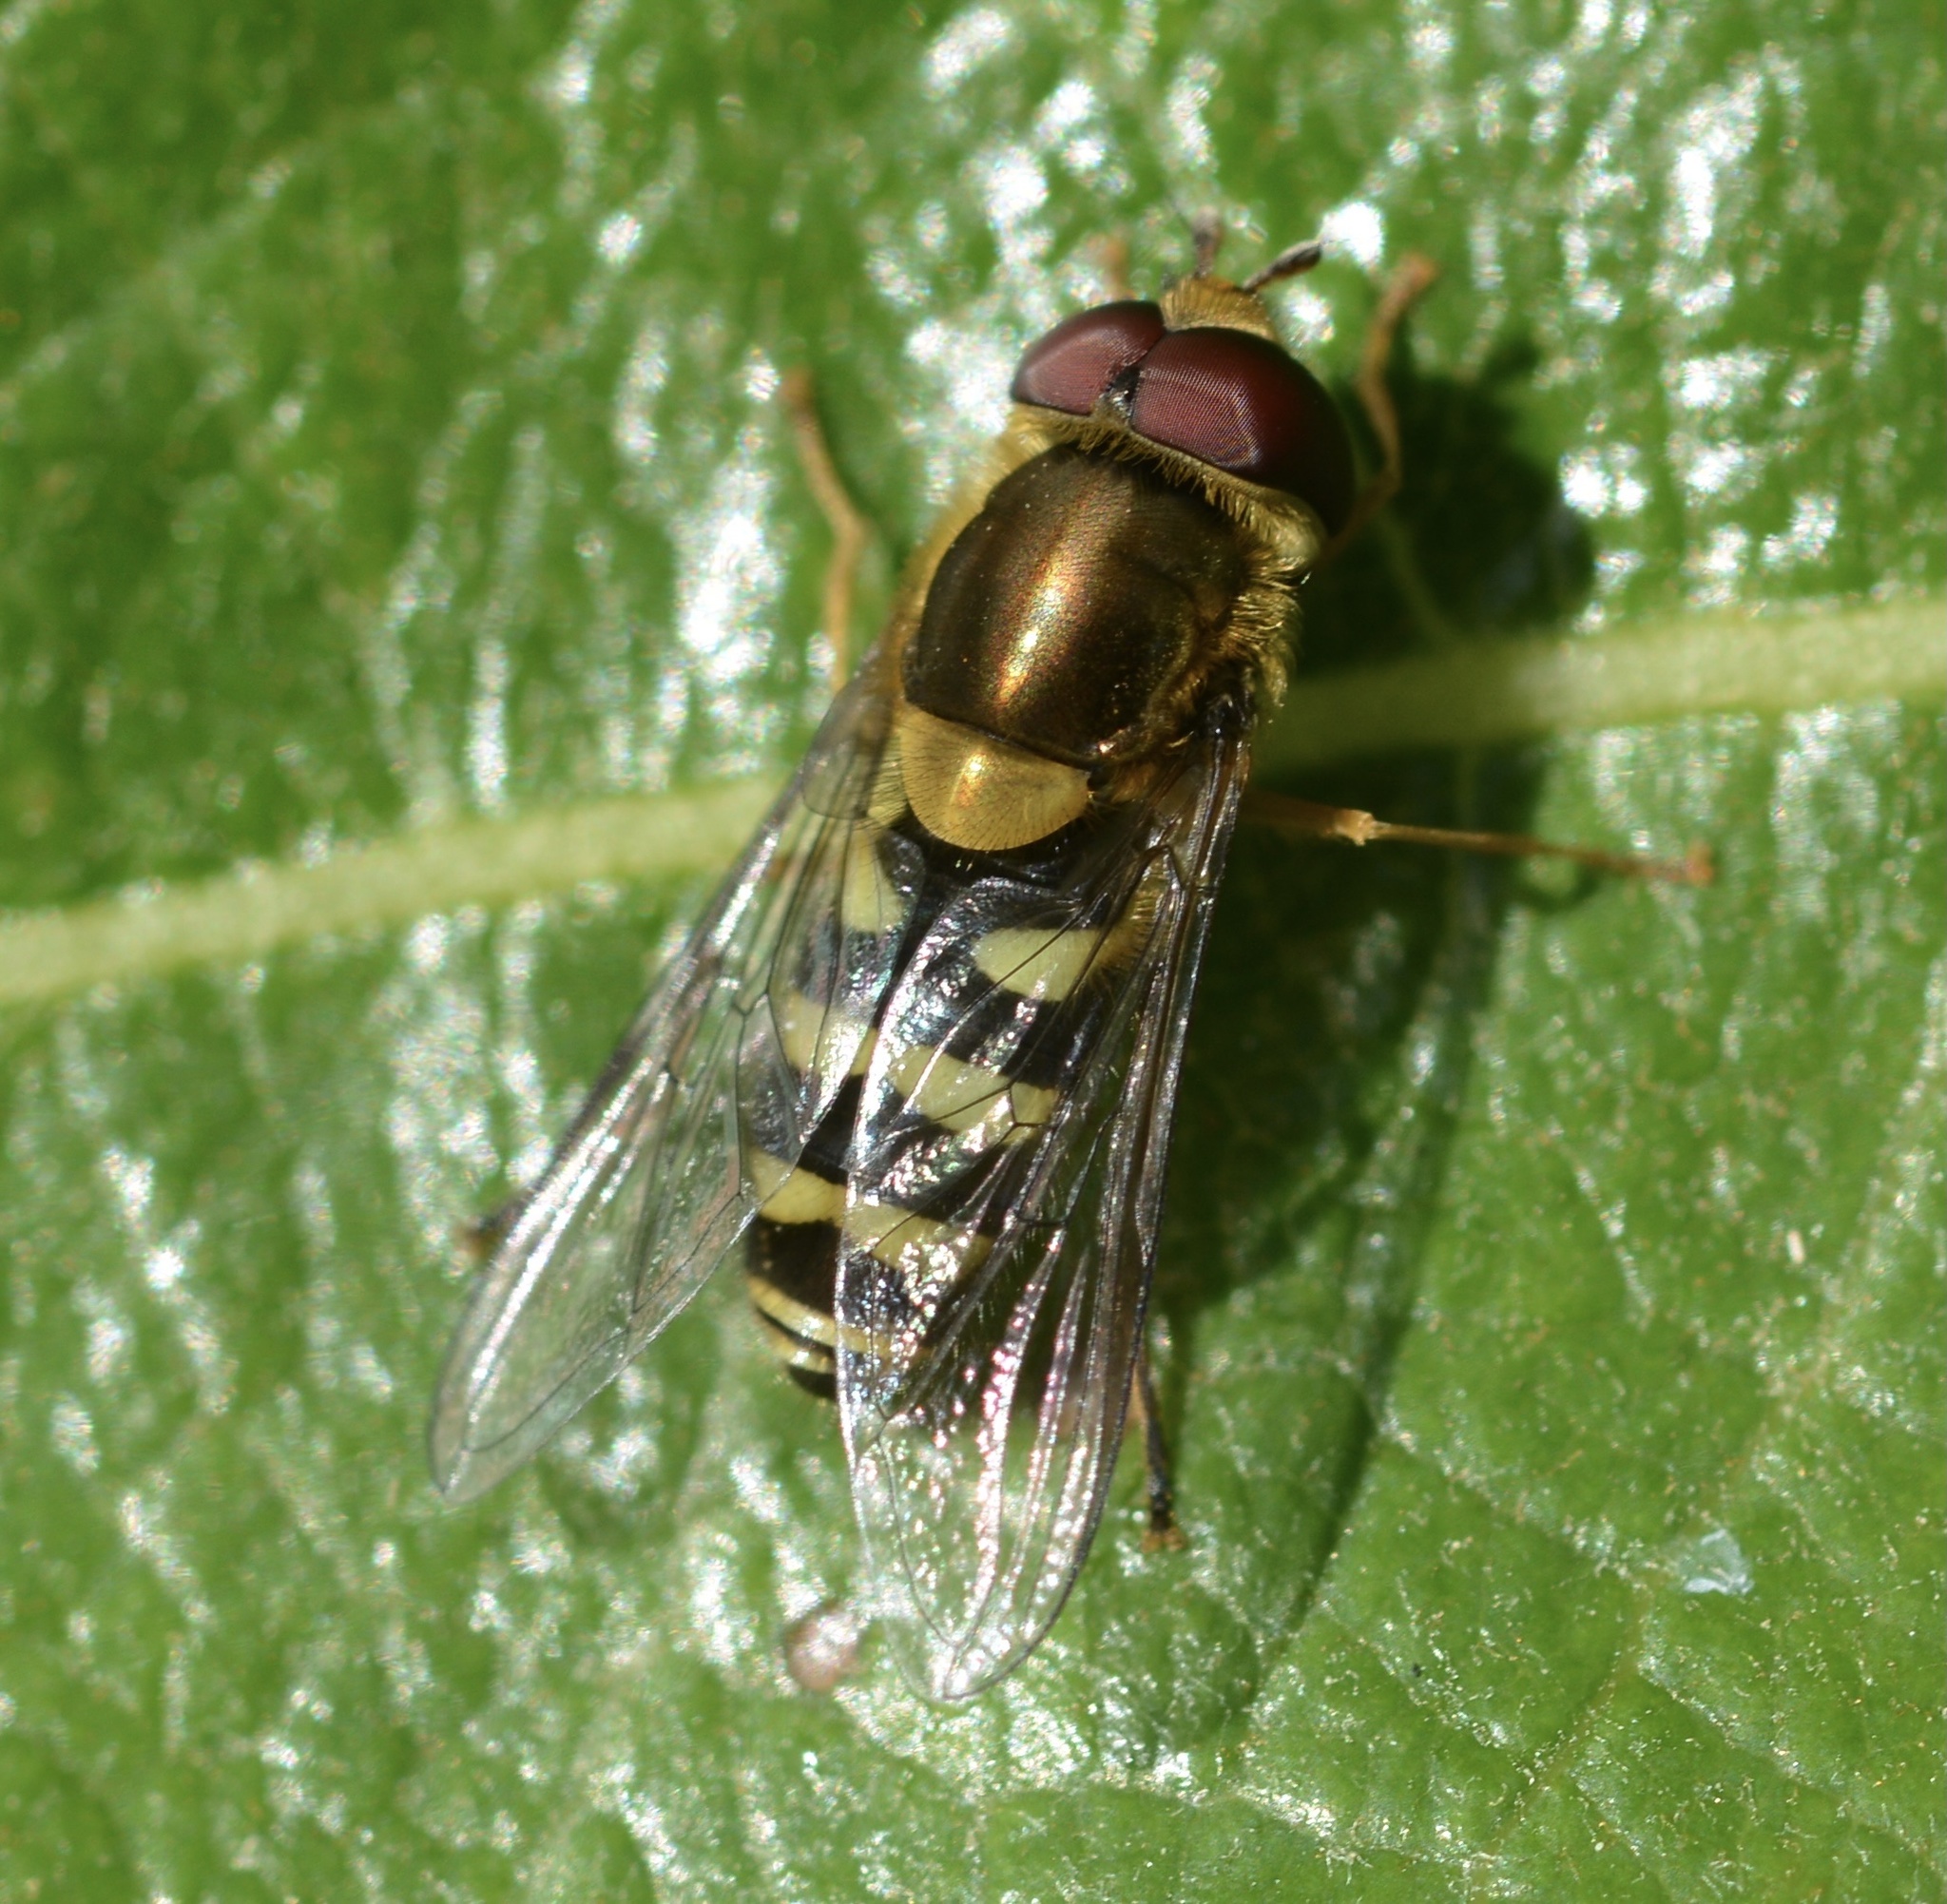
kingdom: Animalia
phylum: Arthropoda
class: Insecta
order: Diptera
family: Syrphidae
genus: Syrphus
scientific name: Syrphus opinator
